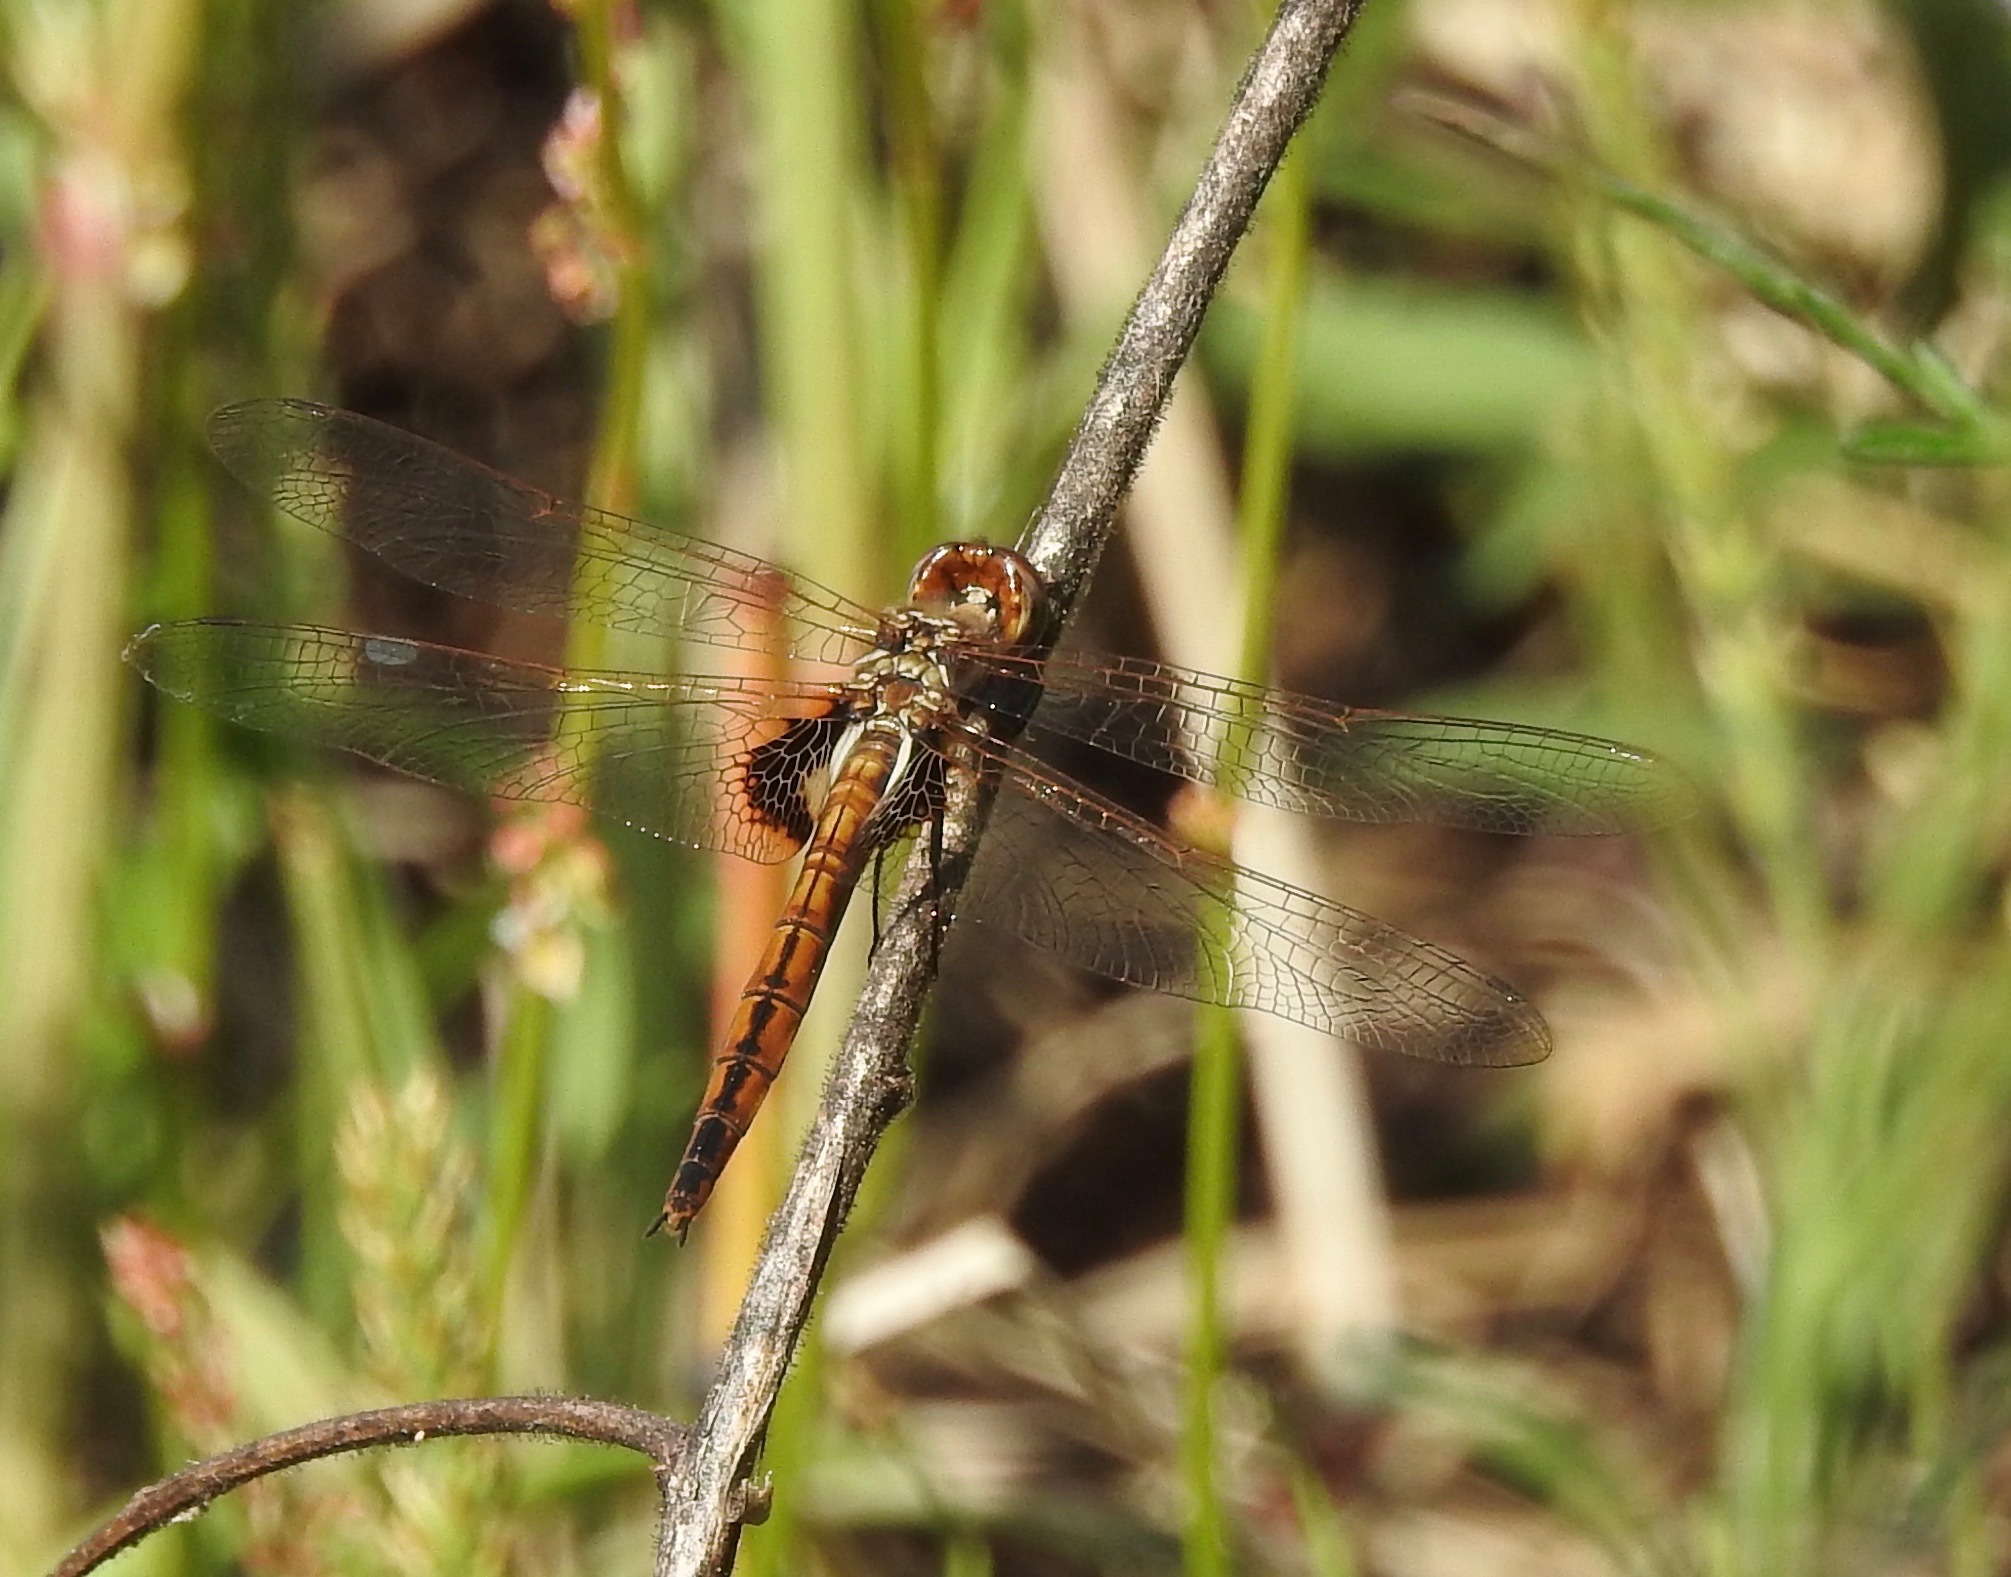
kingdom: Animalia
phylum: Arthropoda
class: Insecta
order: Odonata
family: Libellulidae
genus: Miathyria
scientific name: Miathyria marcella
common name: Hyacinth glider
